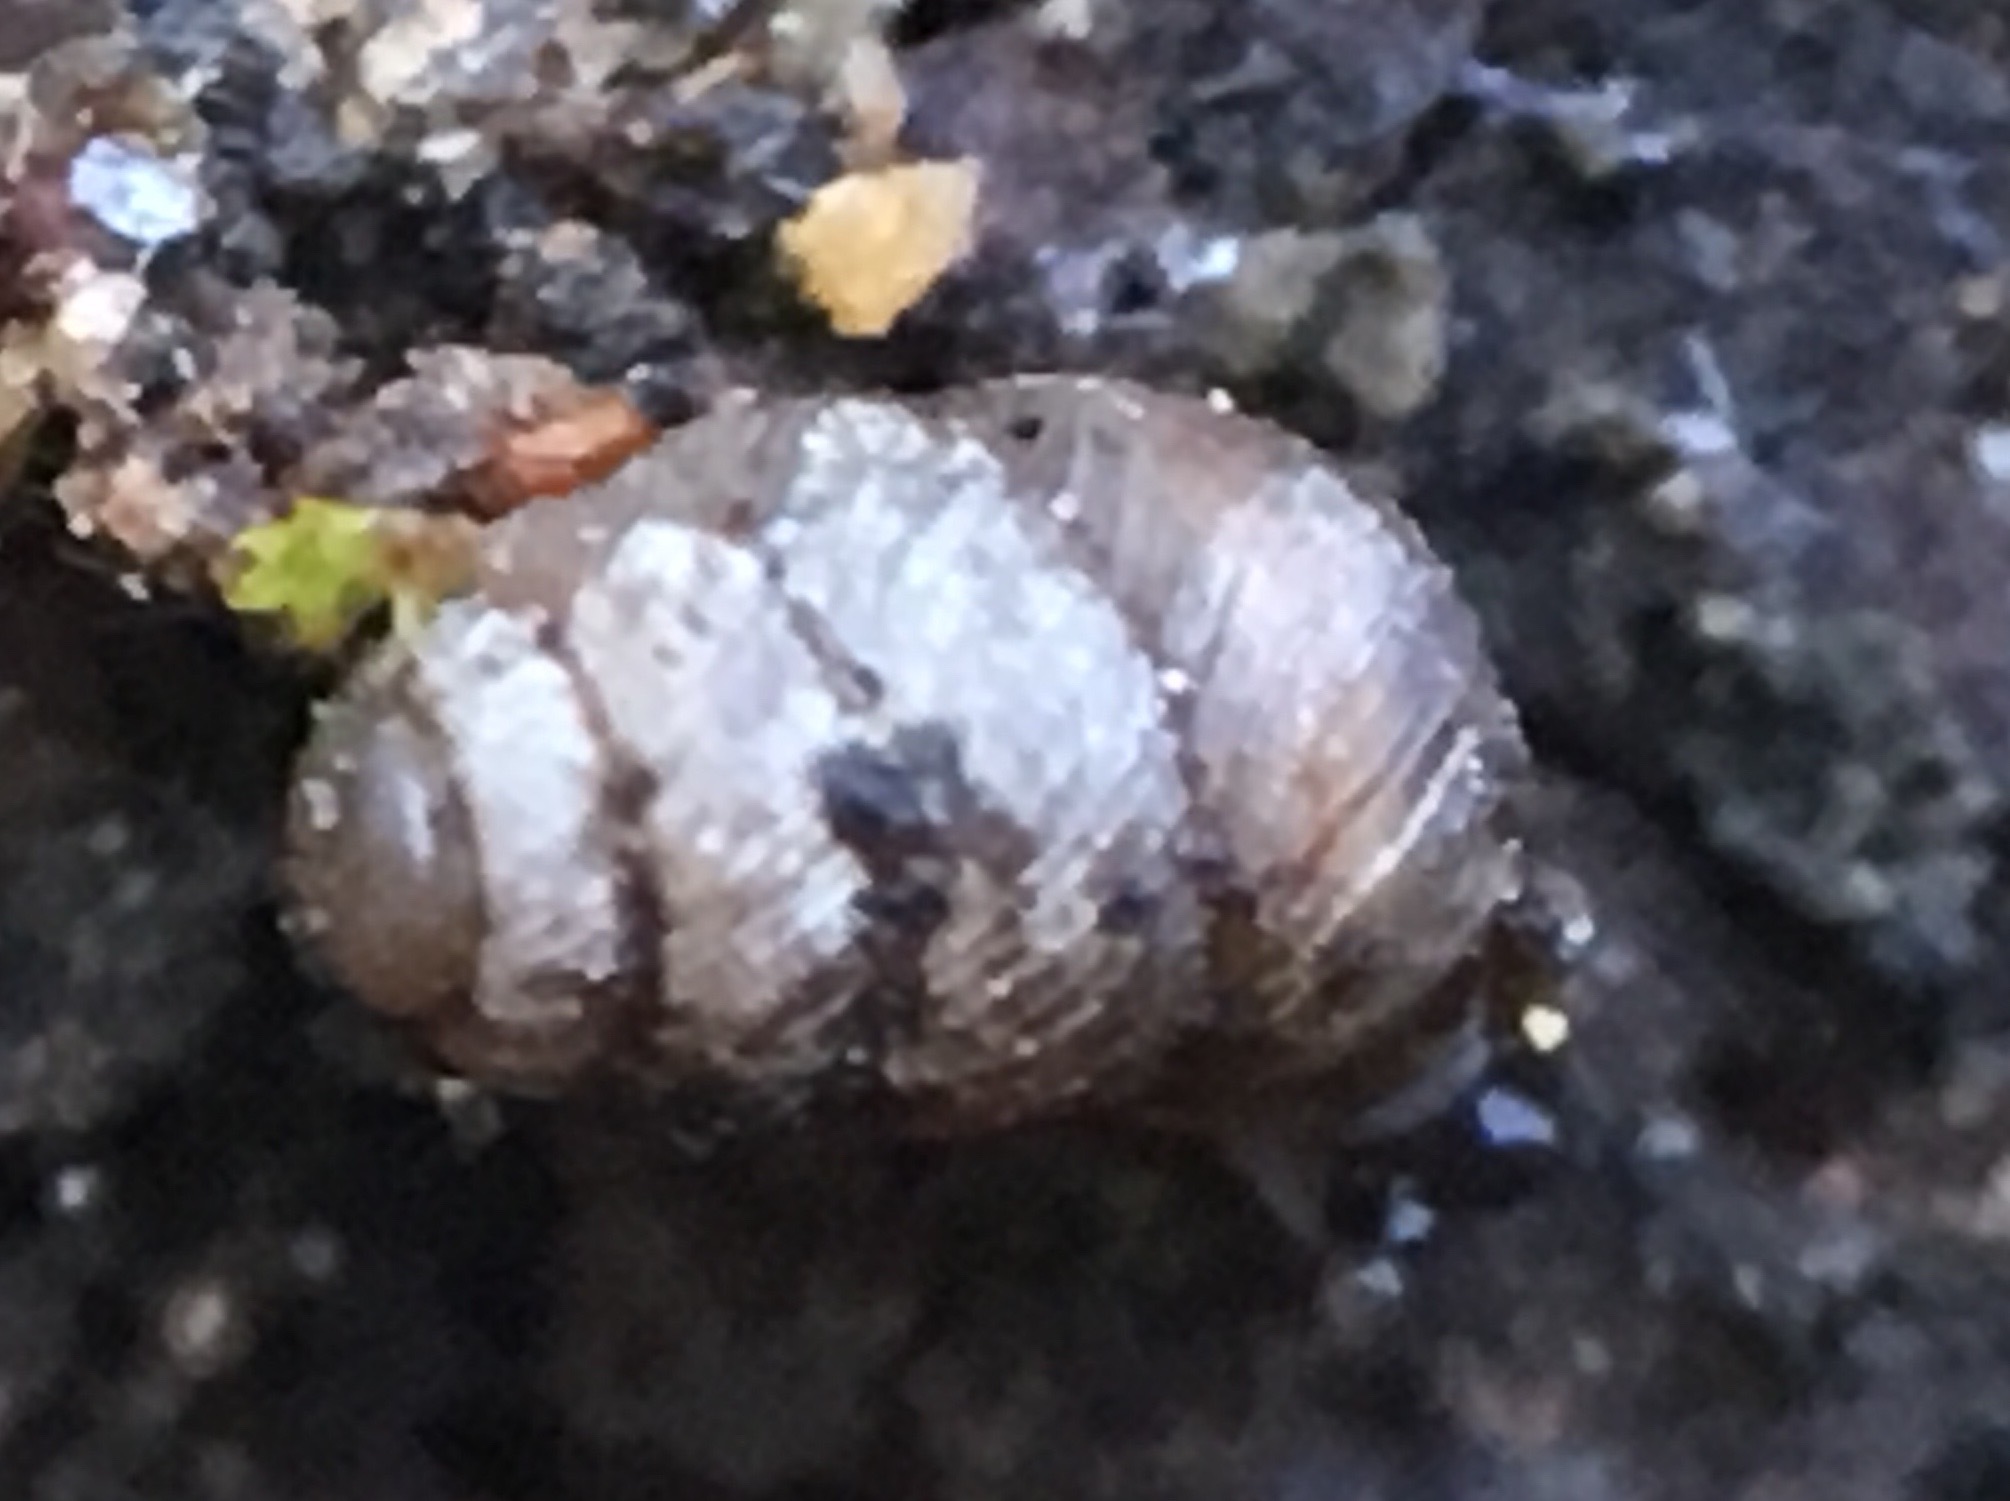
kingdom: Animalia
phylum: Mollusca
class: Gastropoda
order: Stylommatophora
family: Vertiginidae
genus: Vertigo
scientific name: Vertigo californica
